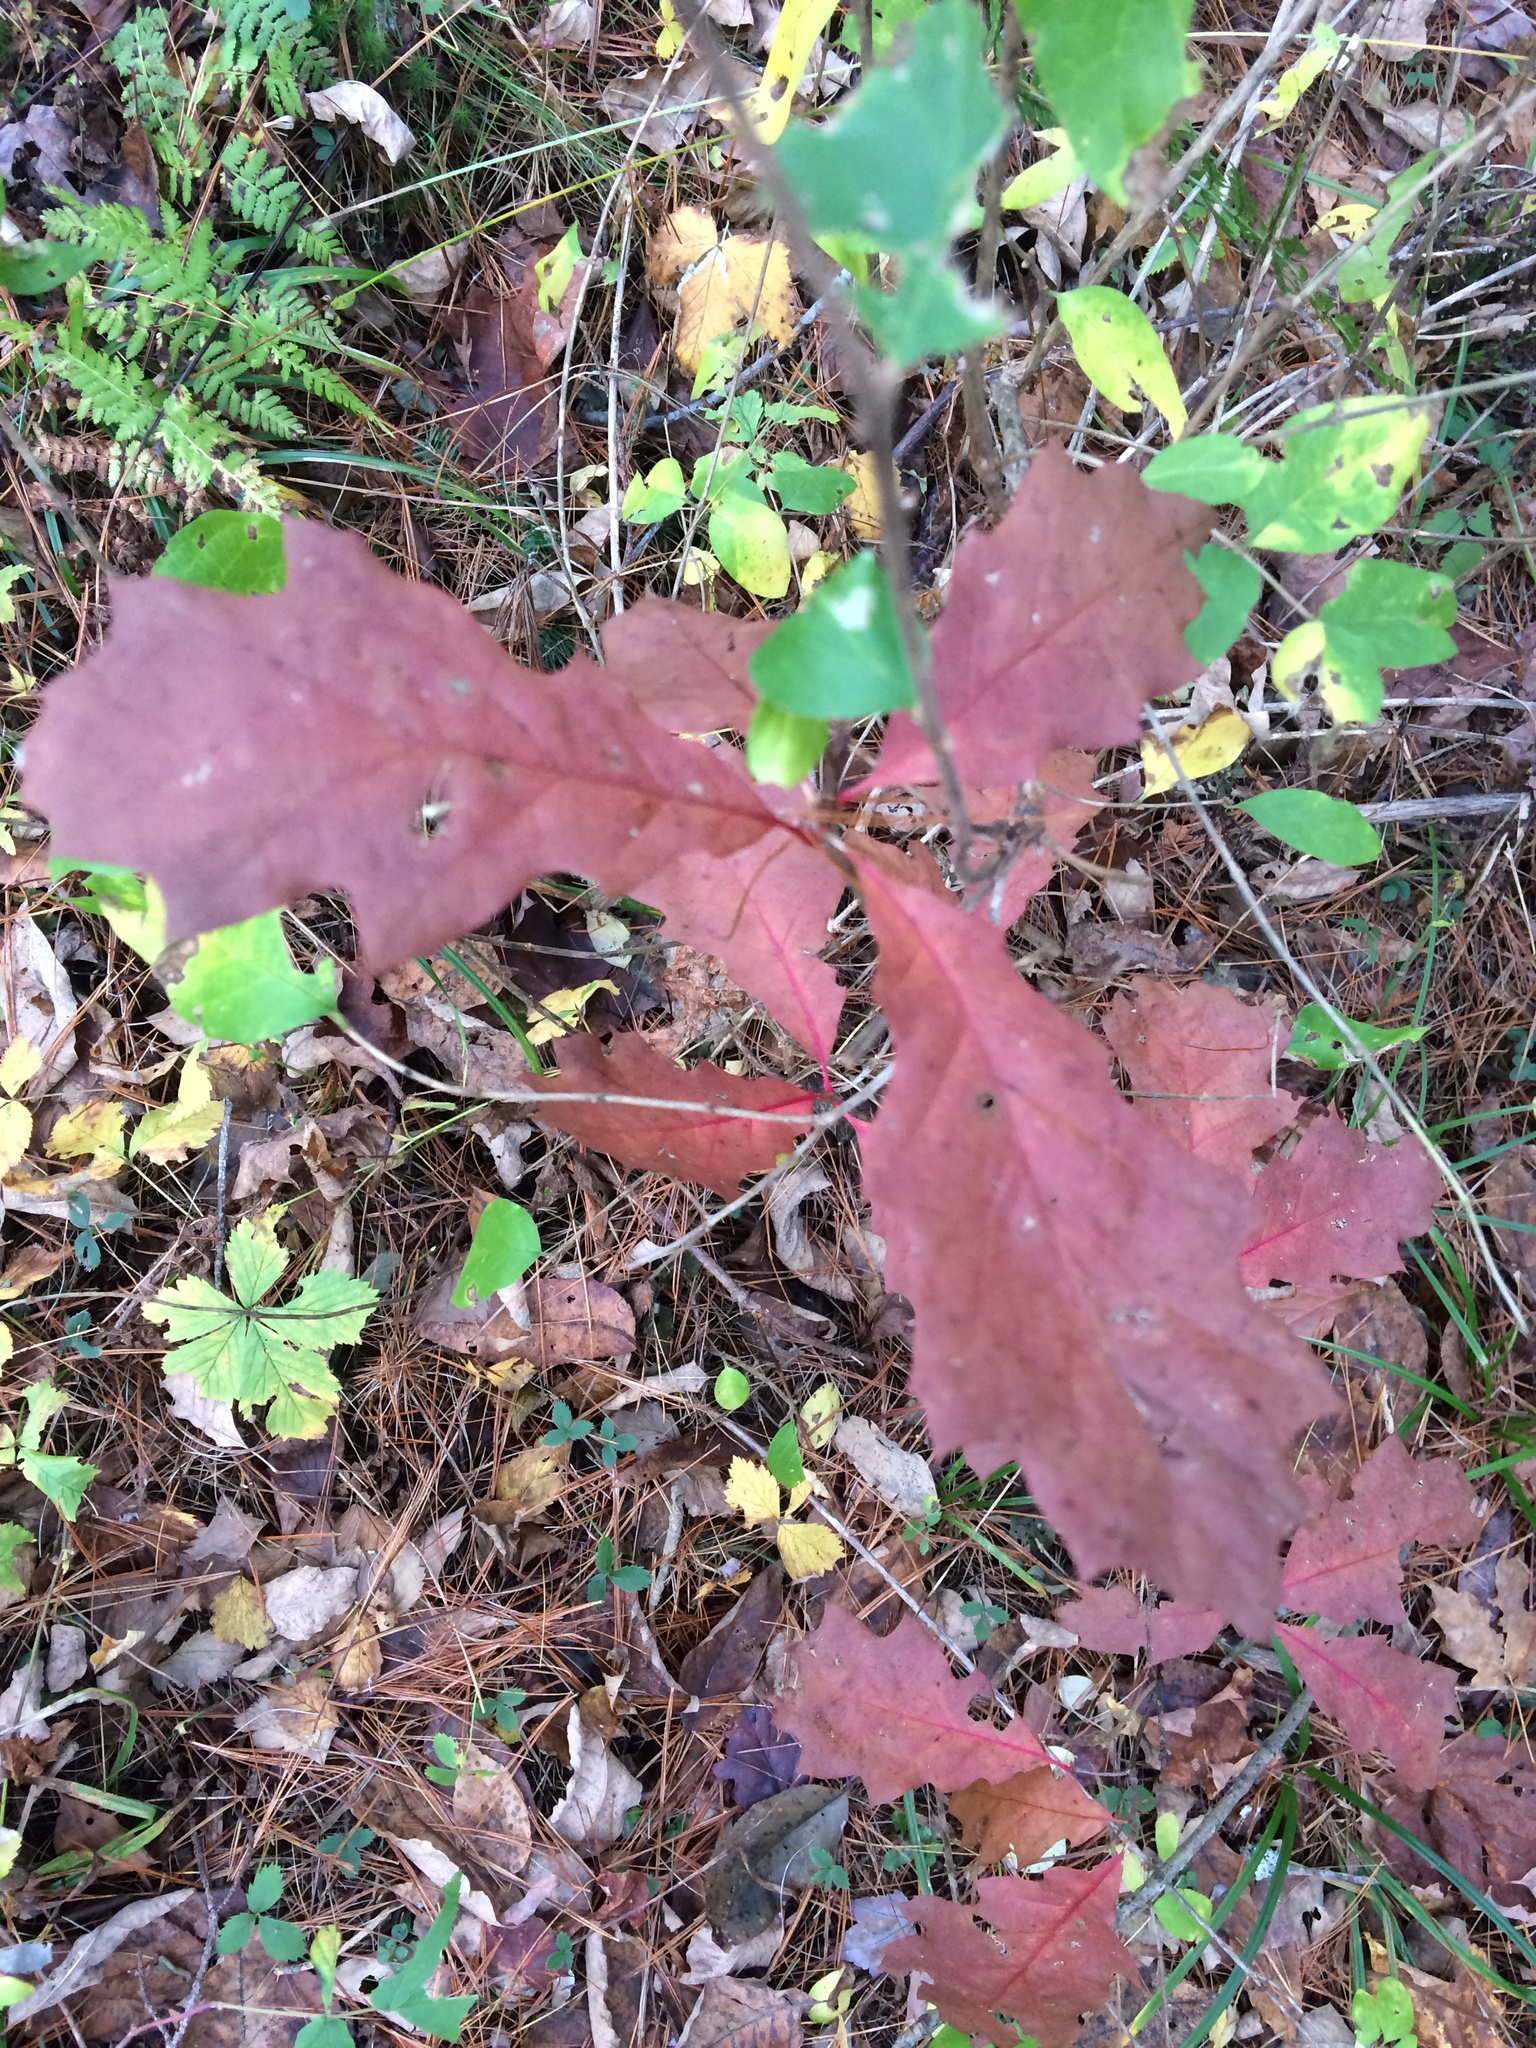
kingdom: Plantae
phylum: Tracheophyta
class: Magnoliopsida
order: Fagales
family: Fagaceae
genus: Quercus
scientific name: Quercus rubra
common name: Red oak
